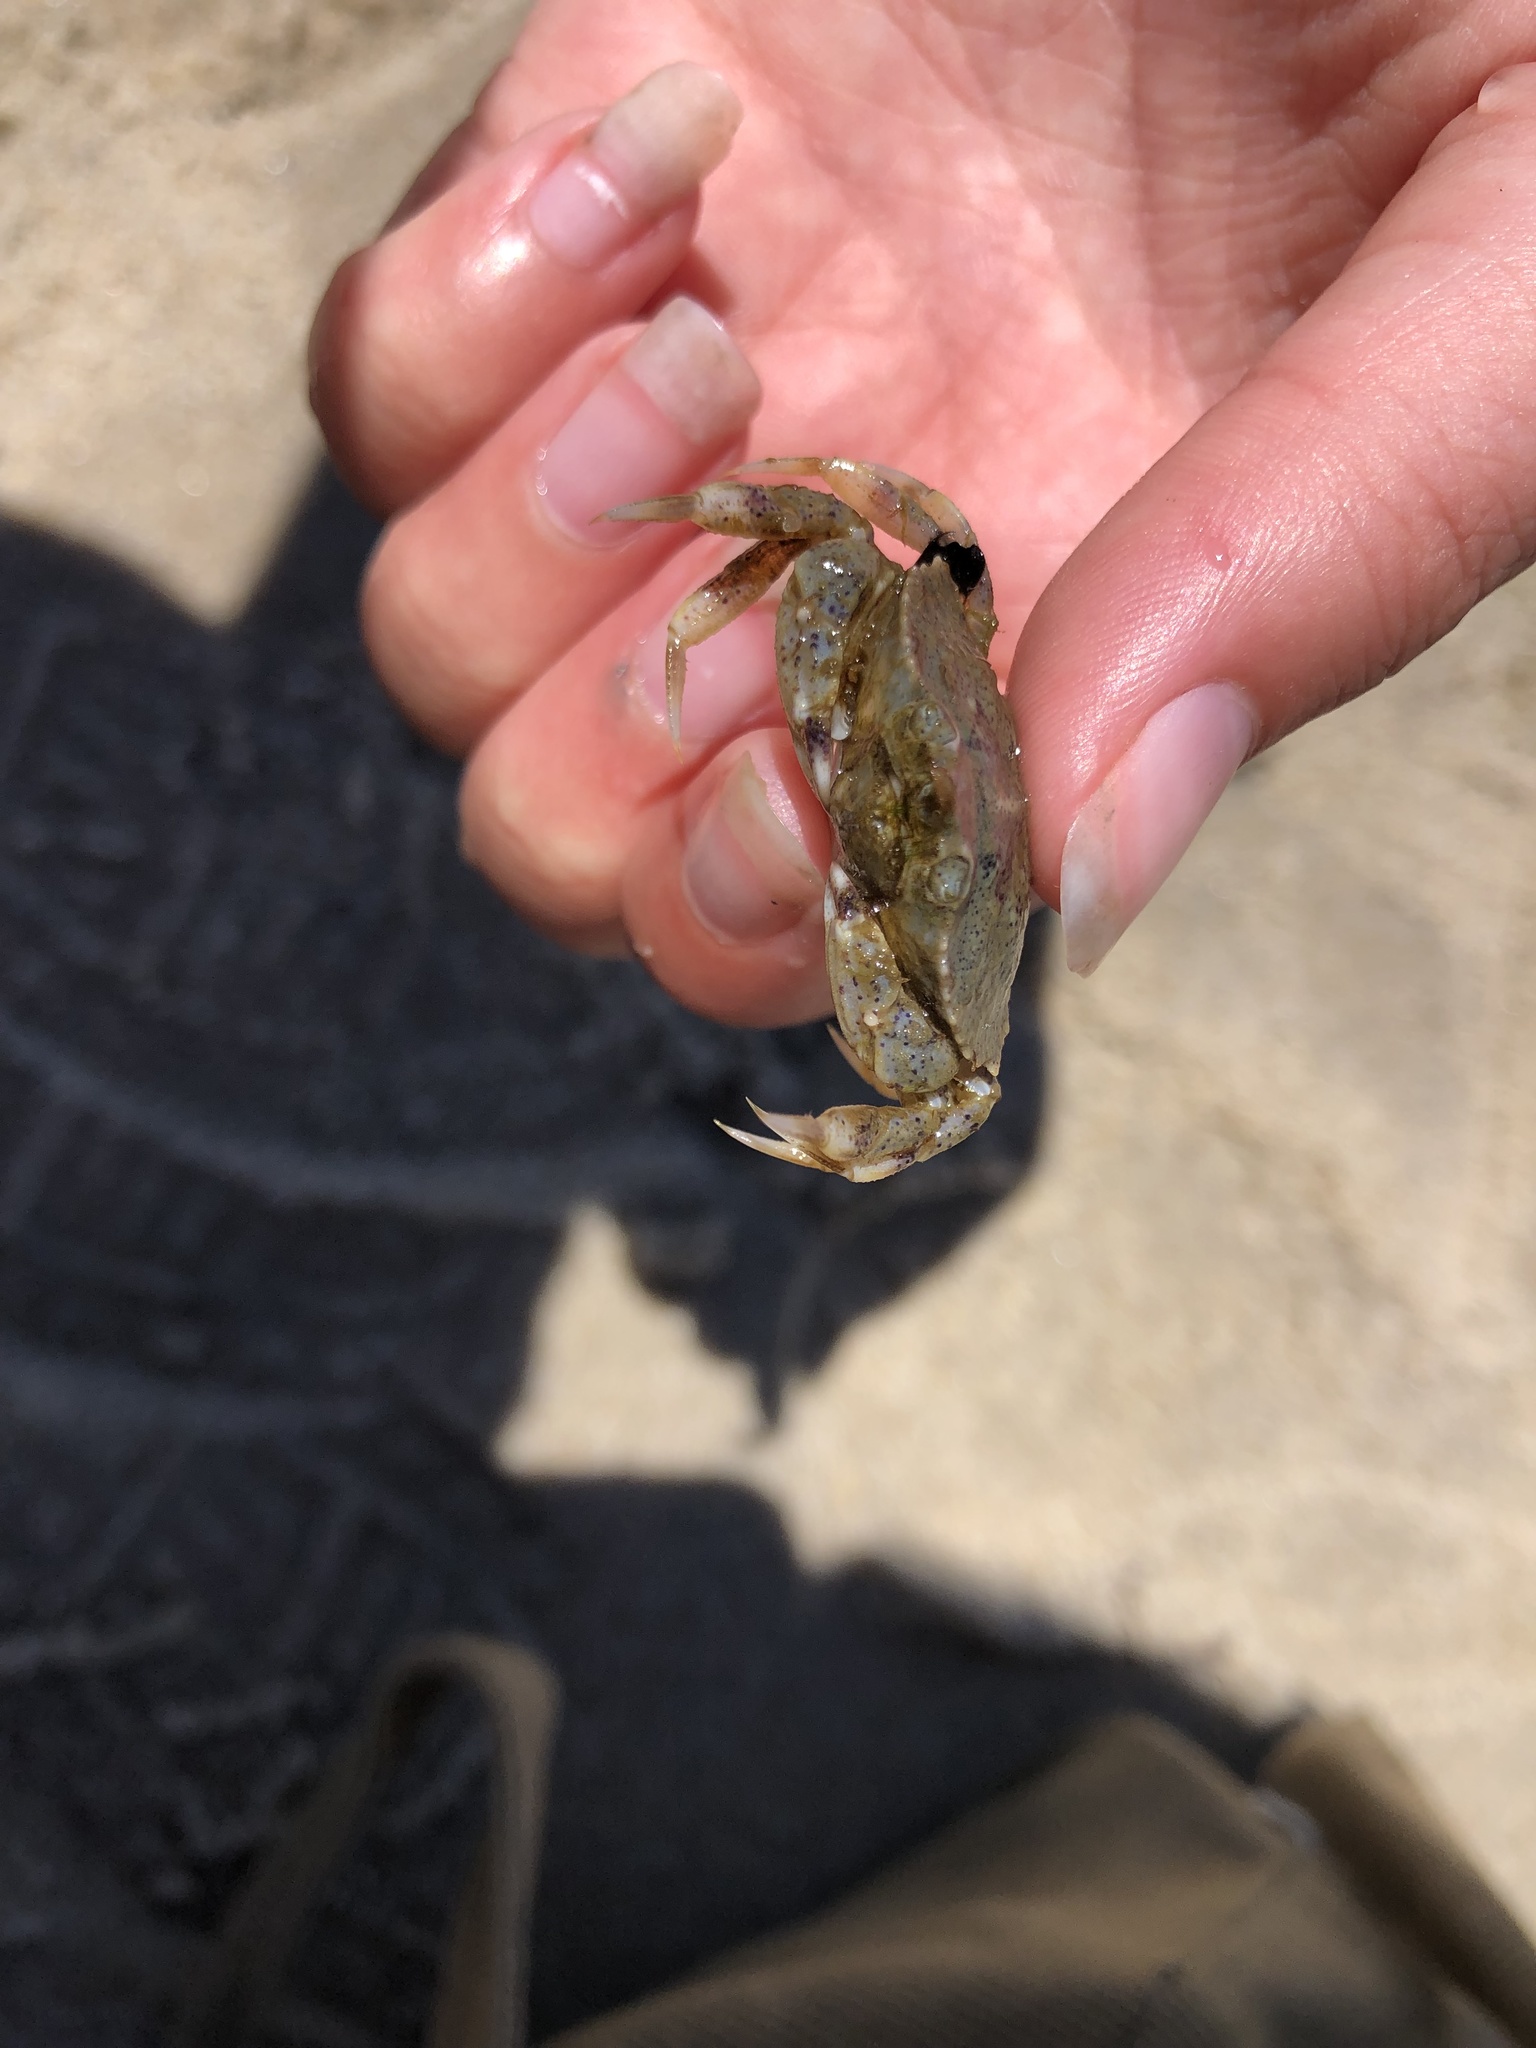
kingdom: Animalia
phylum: Arthropoda
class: Malacostraca
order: Decapoda
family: Cancridae
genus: Cancer
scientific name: Cancer irroratus
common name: Atlantic rock crab
